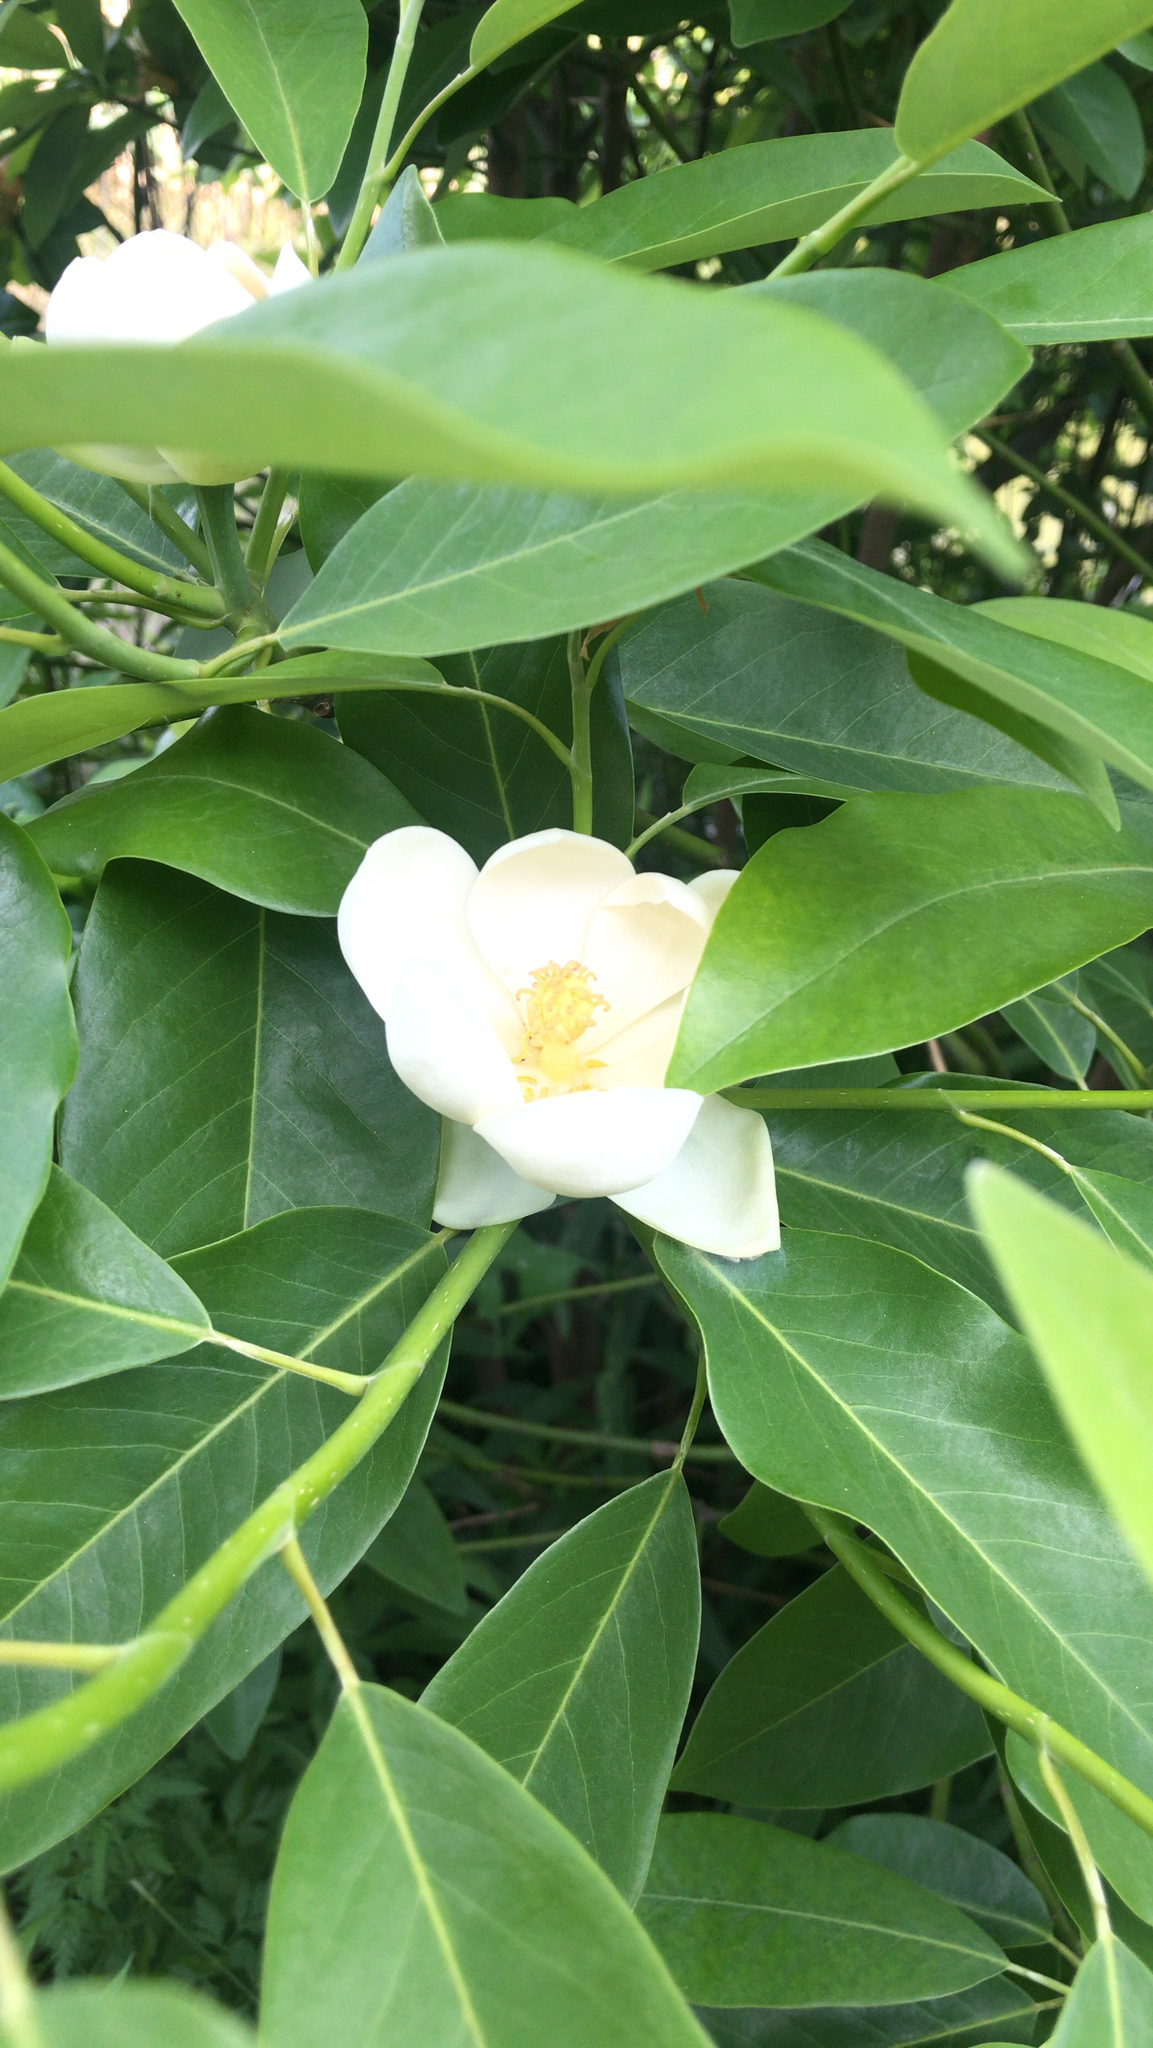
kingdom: Plantae
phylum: Tracheophyta
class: Magnoliopsida
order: Magnoliales
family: Magnoliaceae
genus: Magnolia
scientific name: Magnolia virginiana
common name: Swamp bay
